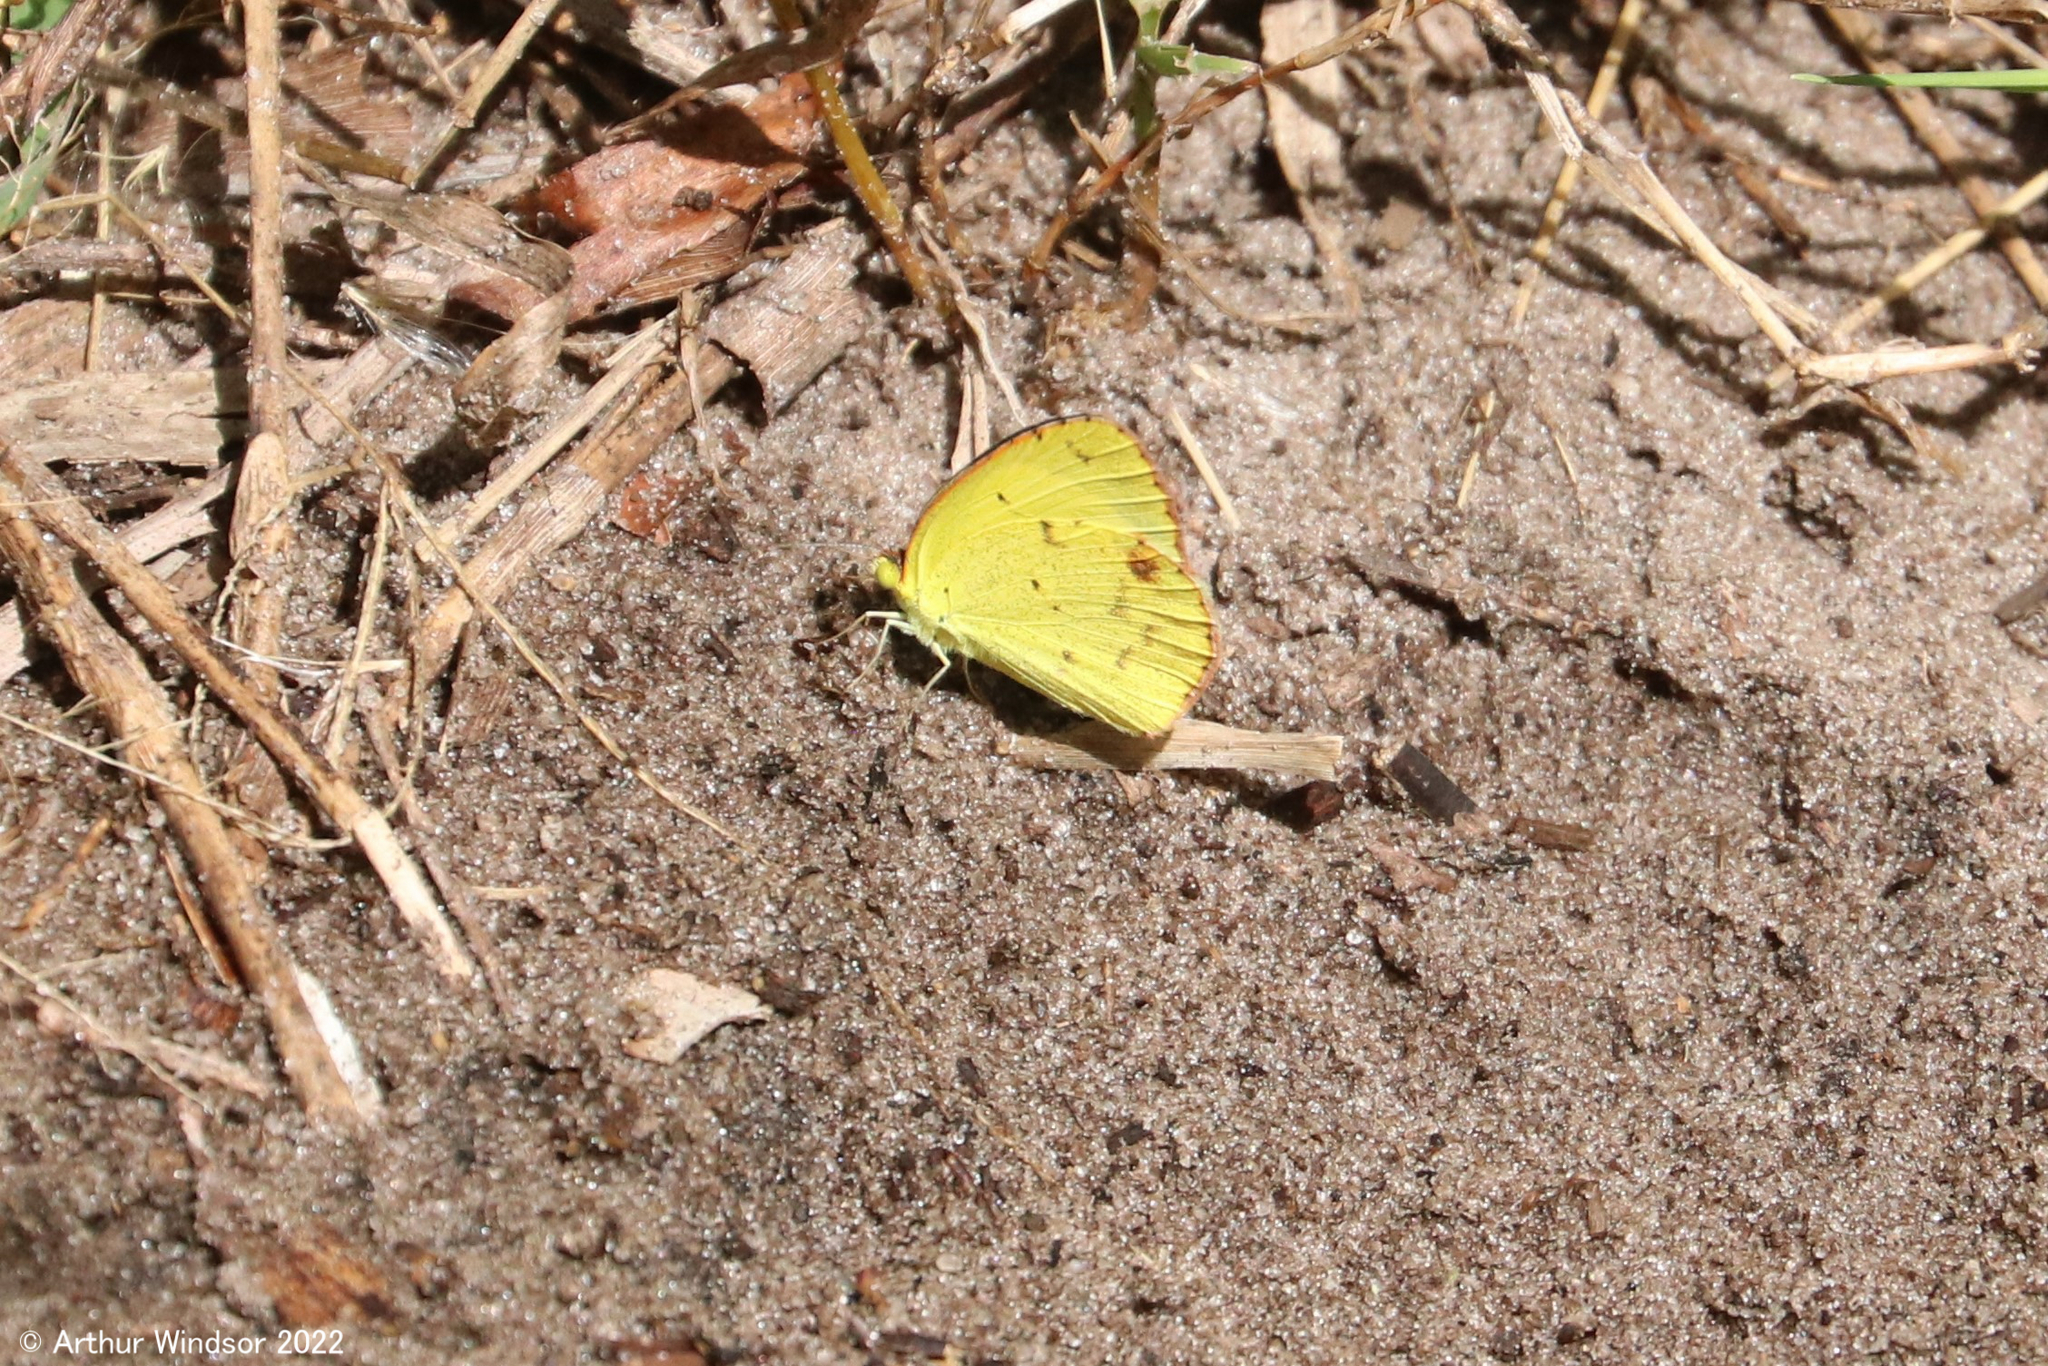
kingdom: Animalia
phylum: Arthropoda
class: Insecta
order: Lepidoptera
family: Pieridae
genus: Pyrisitia
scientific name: Pyrisitia lisa
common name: Little yellow
